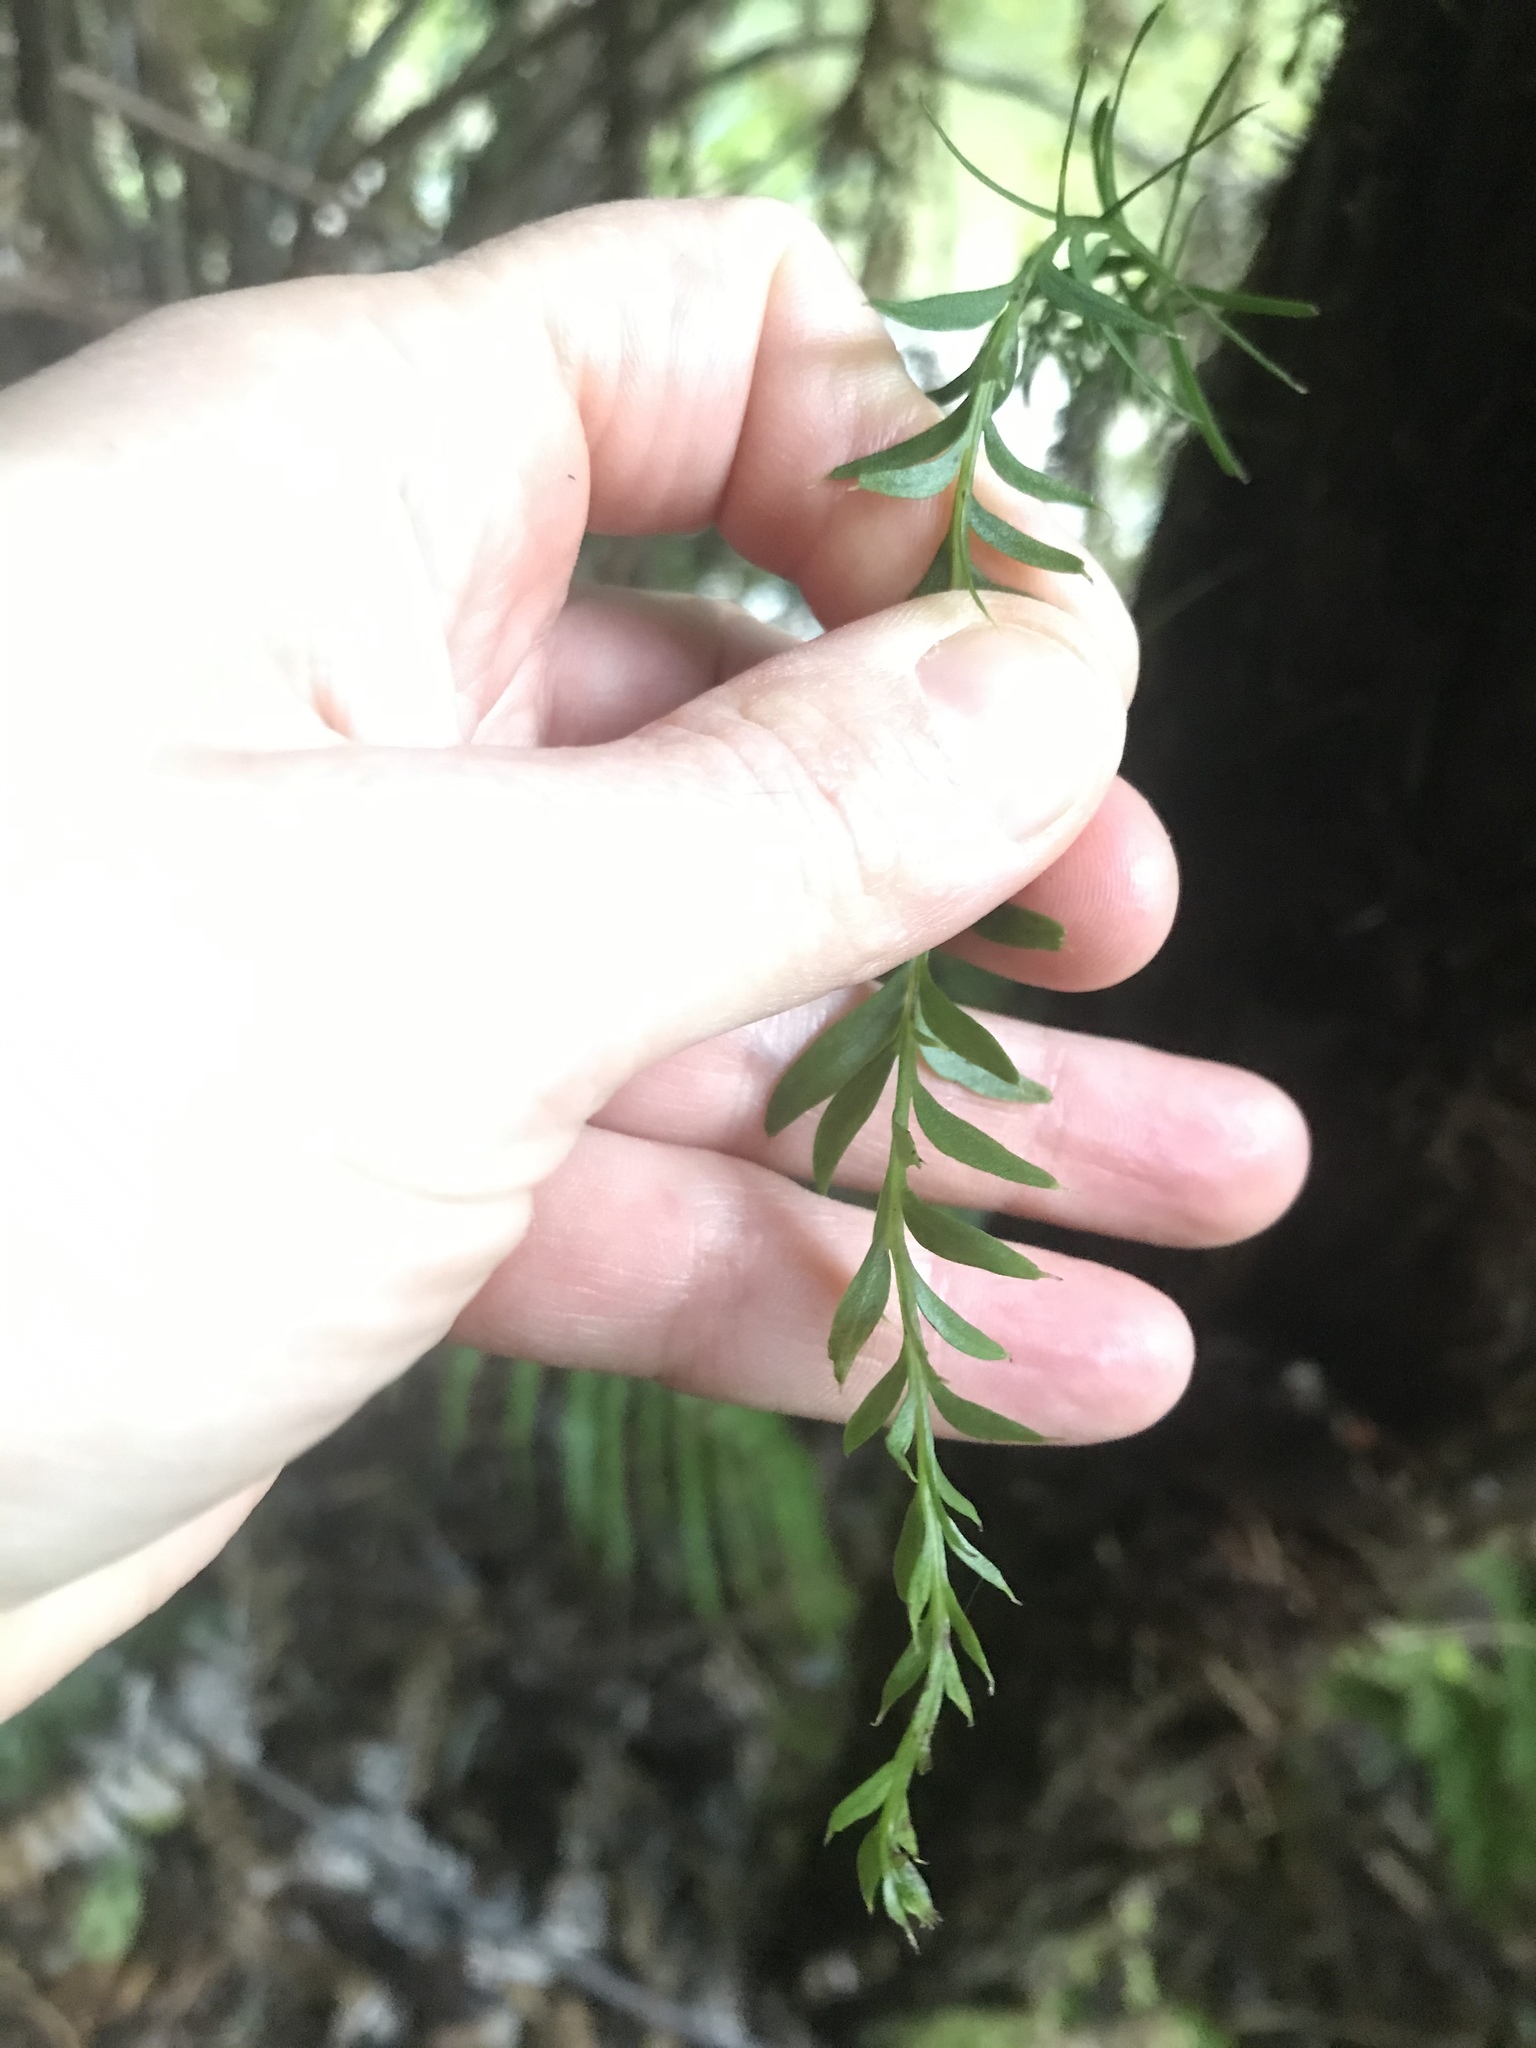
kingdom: Plantae
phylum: Tracheophyta
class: Polypodiopsida
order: Psilotales
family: Psilotaceae
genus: Tmesipteris
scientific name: Tmesipteris elongata
